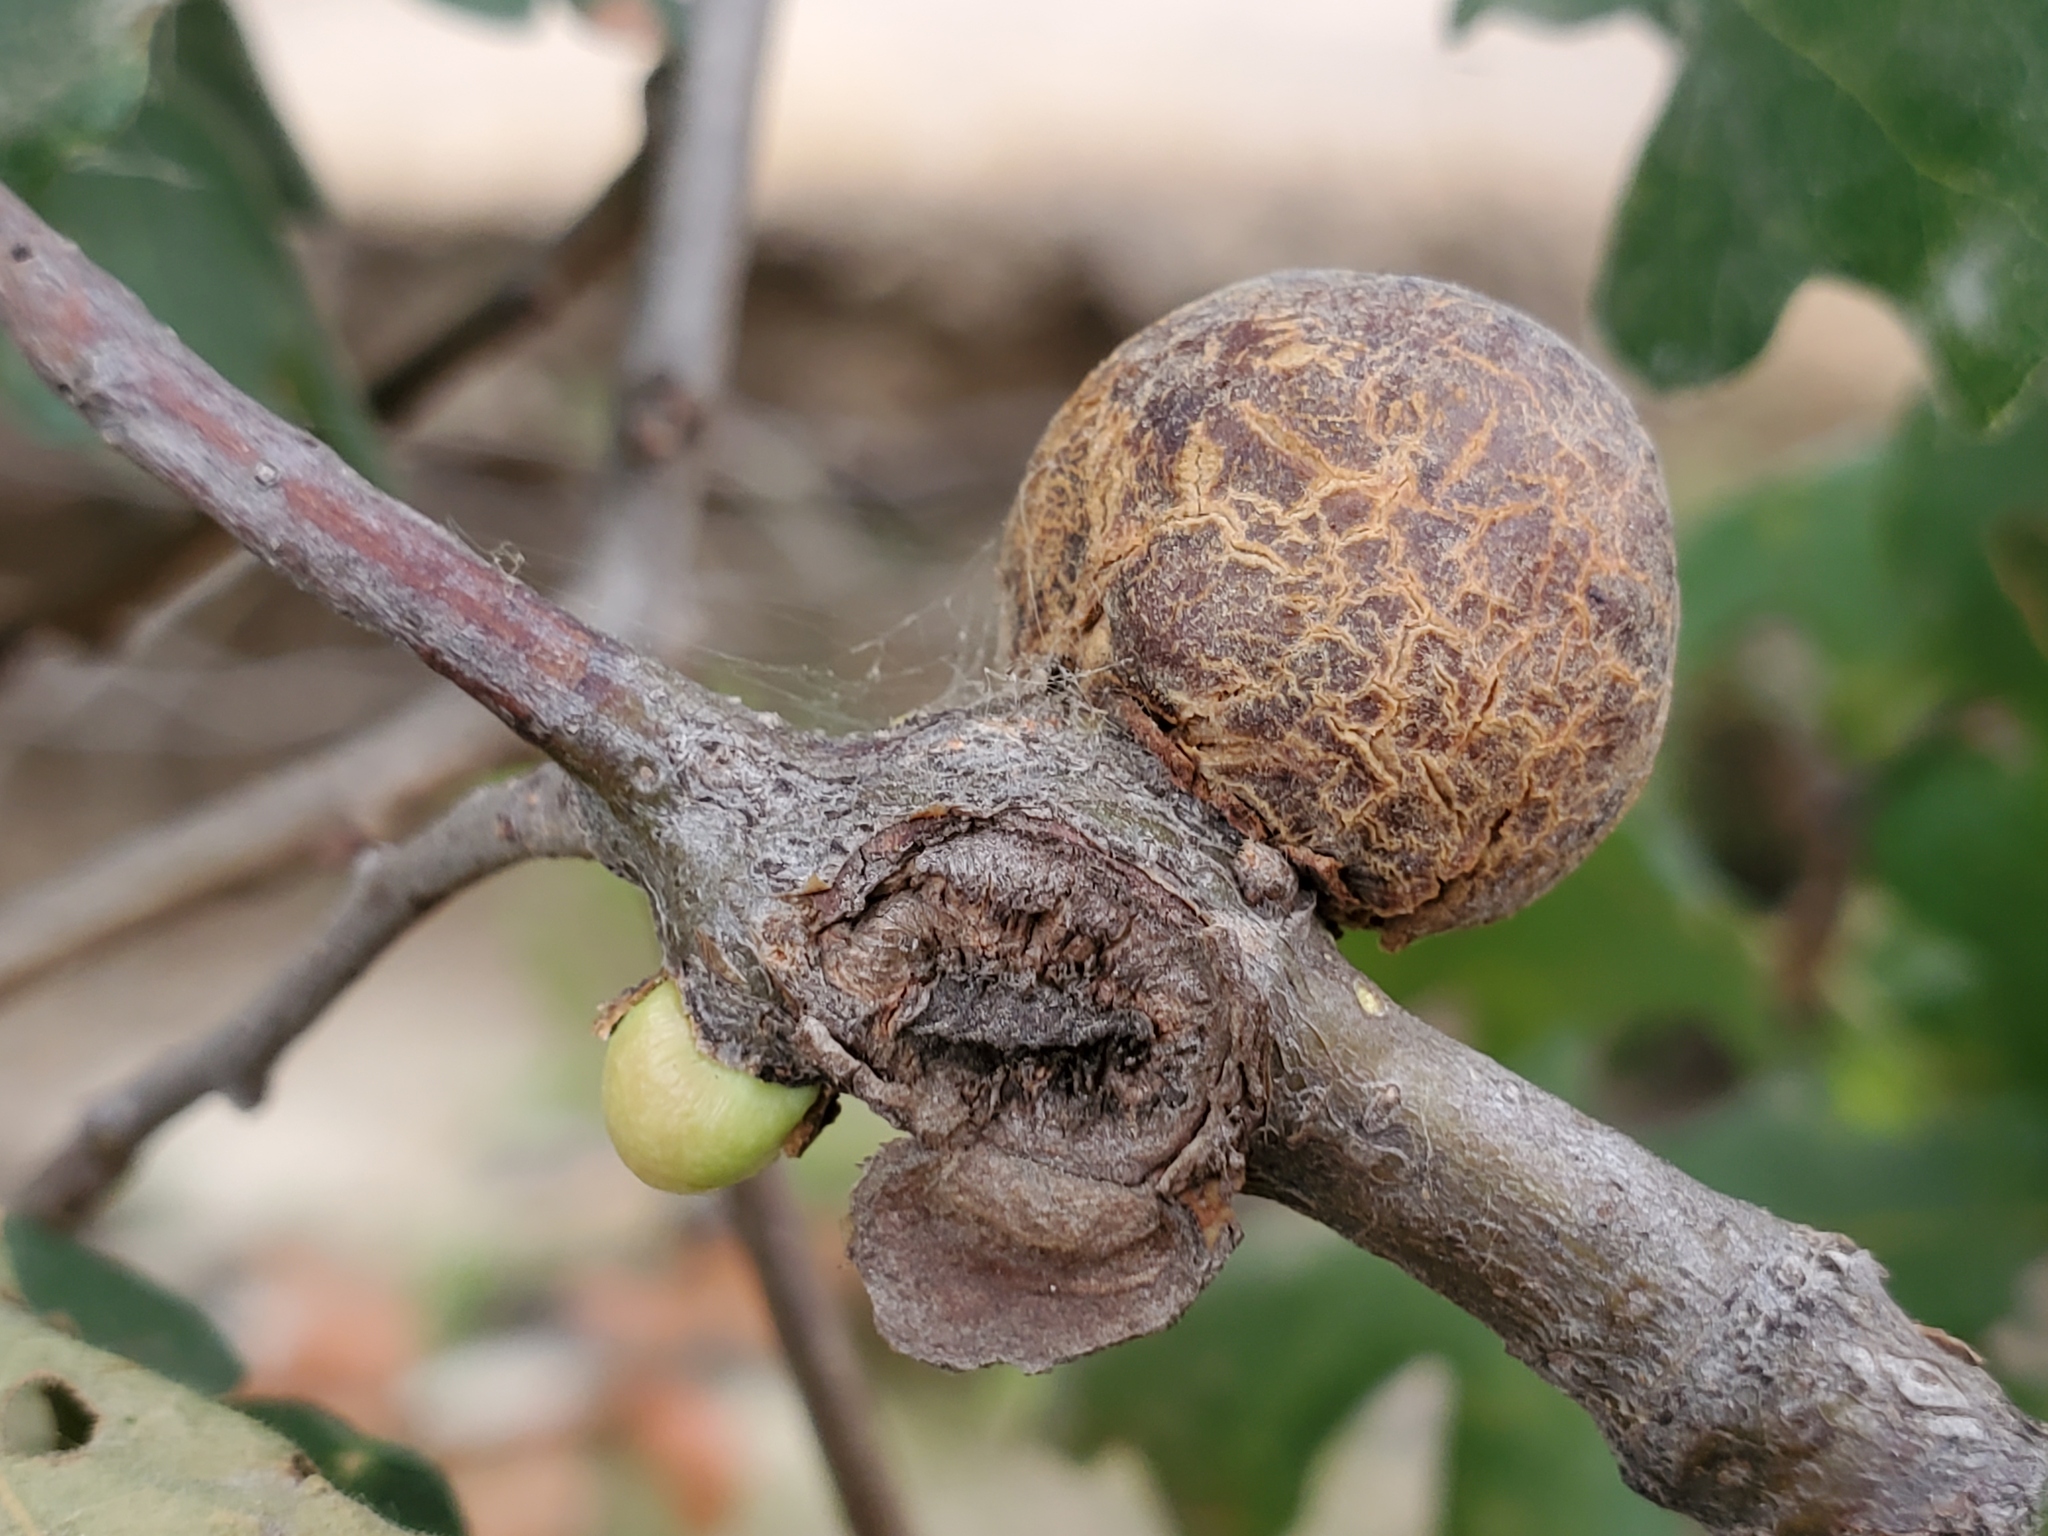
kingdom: Animalia
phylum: Arthropoda
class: Insecta
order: Hymenoptera
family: Cynipidae
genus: Andricus
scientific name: Andricus quercuscalifornicus
